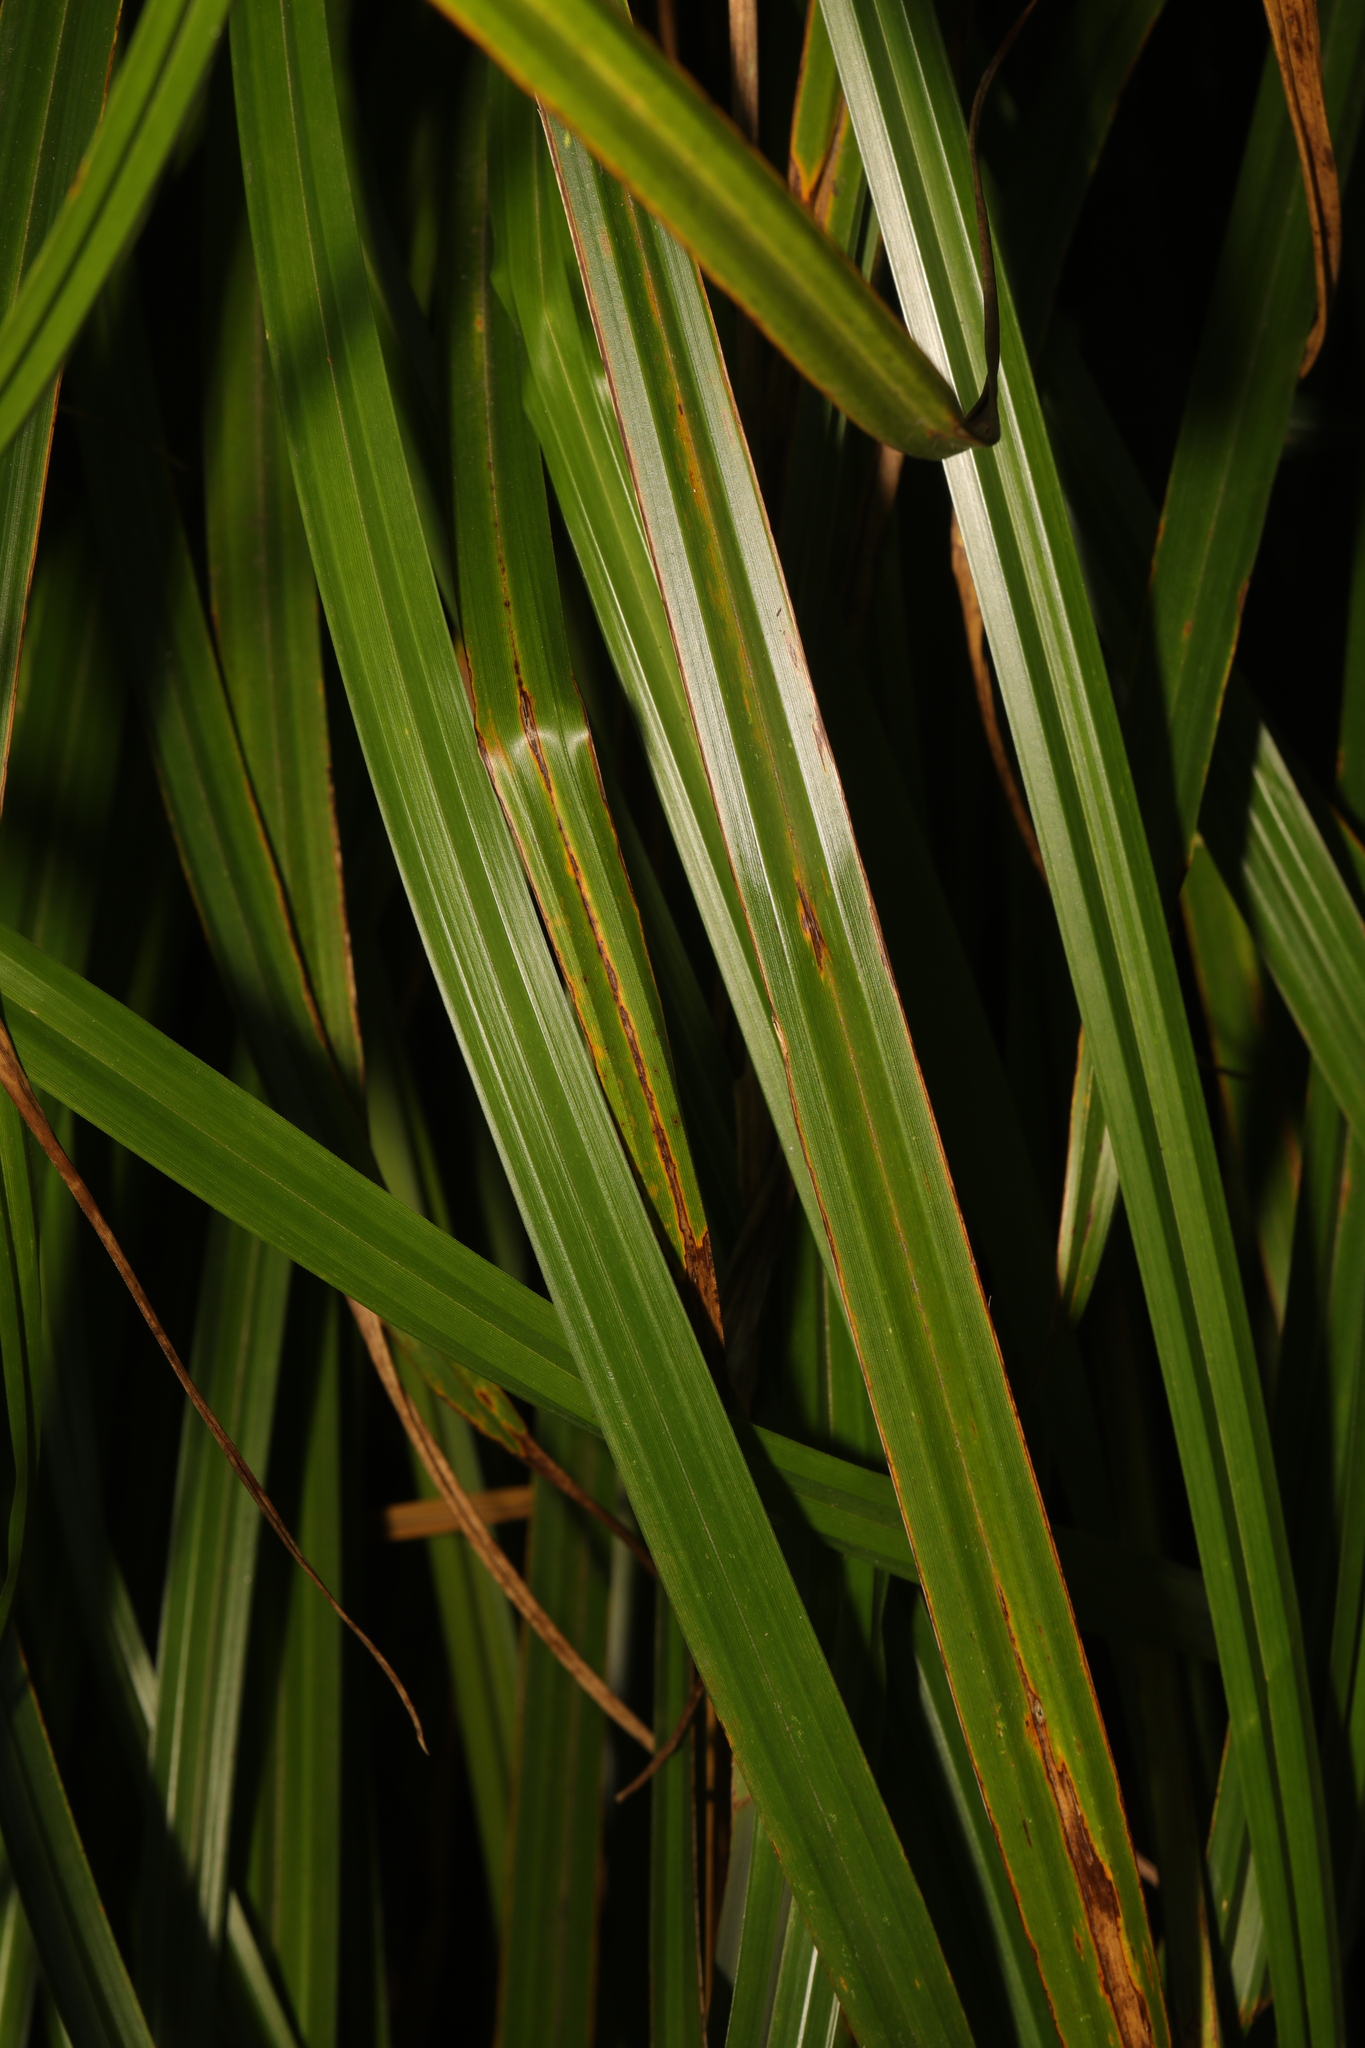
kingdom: Plantae
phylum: Tracheophyta
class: Liliopsida
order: Poales
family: Cyperaceae
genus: Carex
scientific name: Carex pendula
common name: Pendulous sedge
